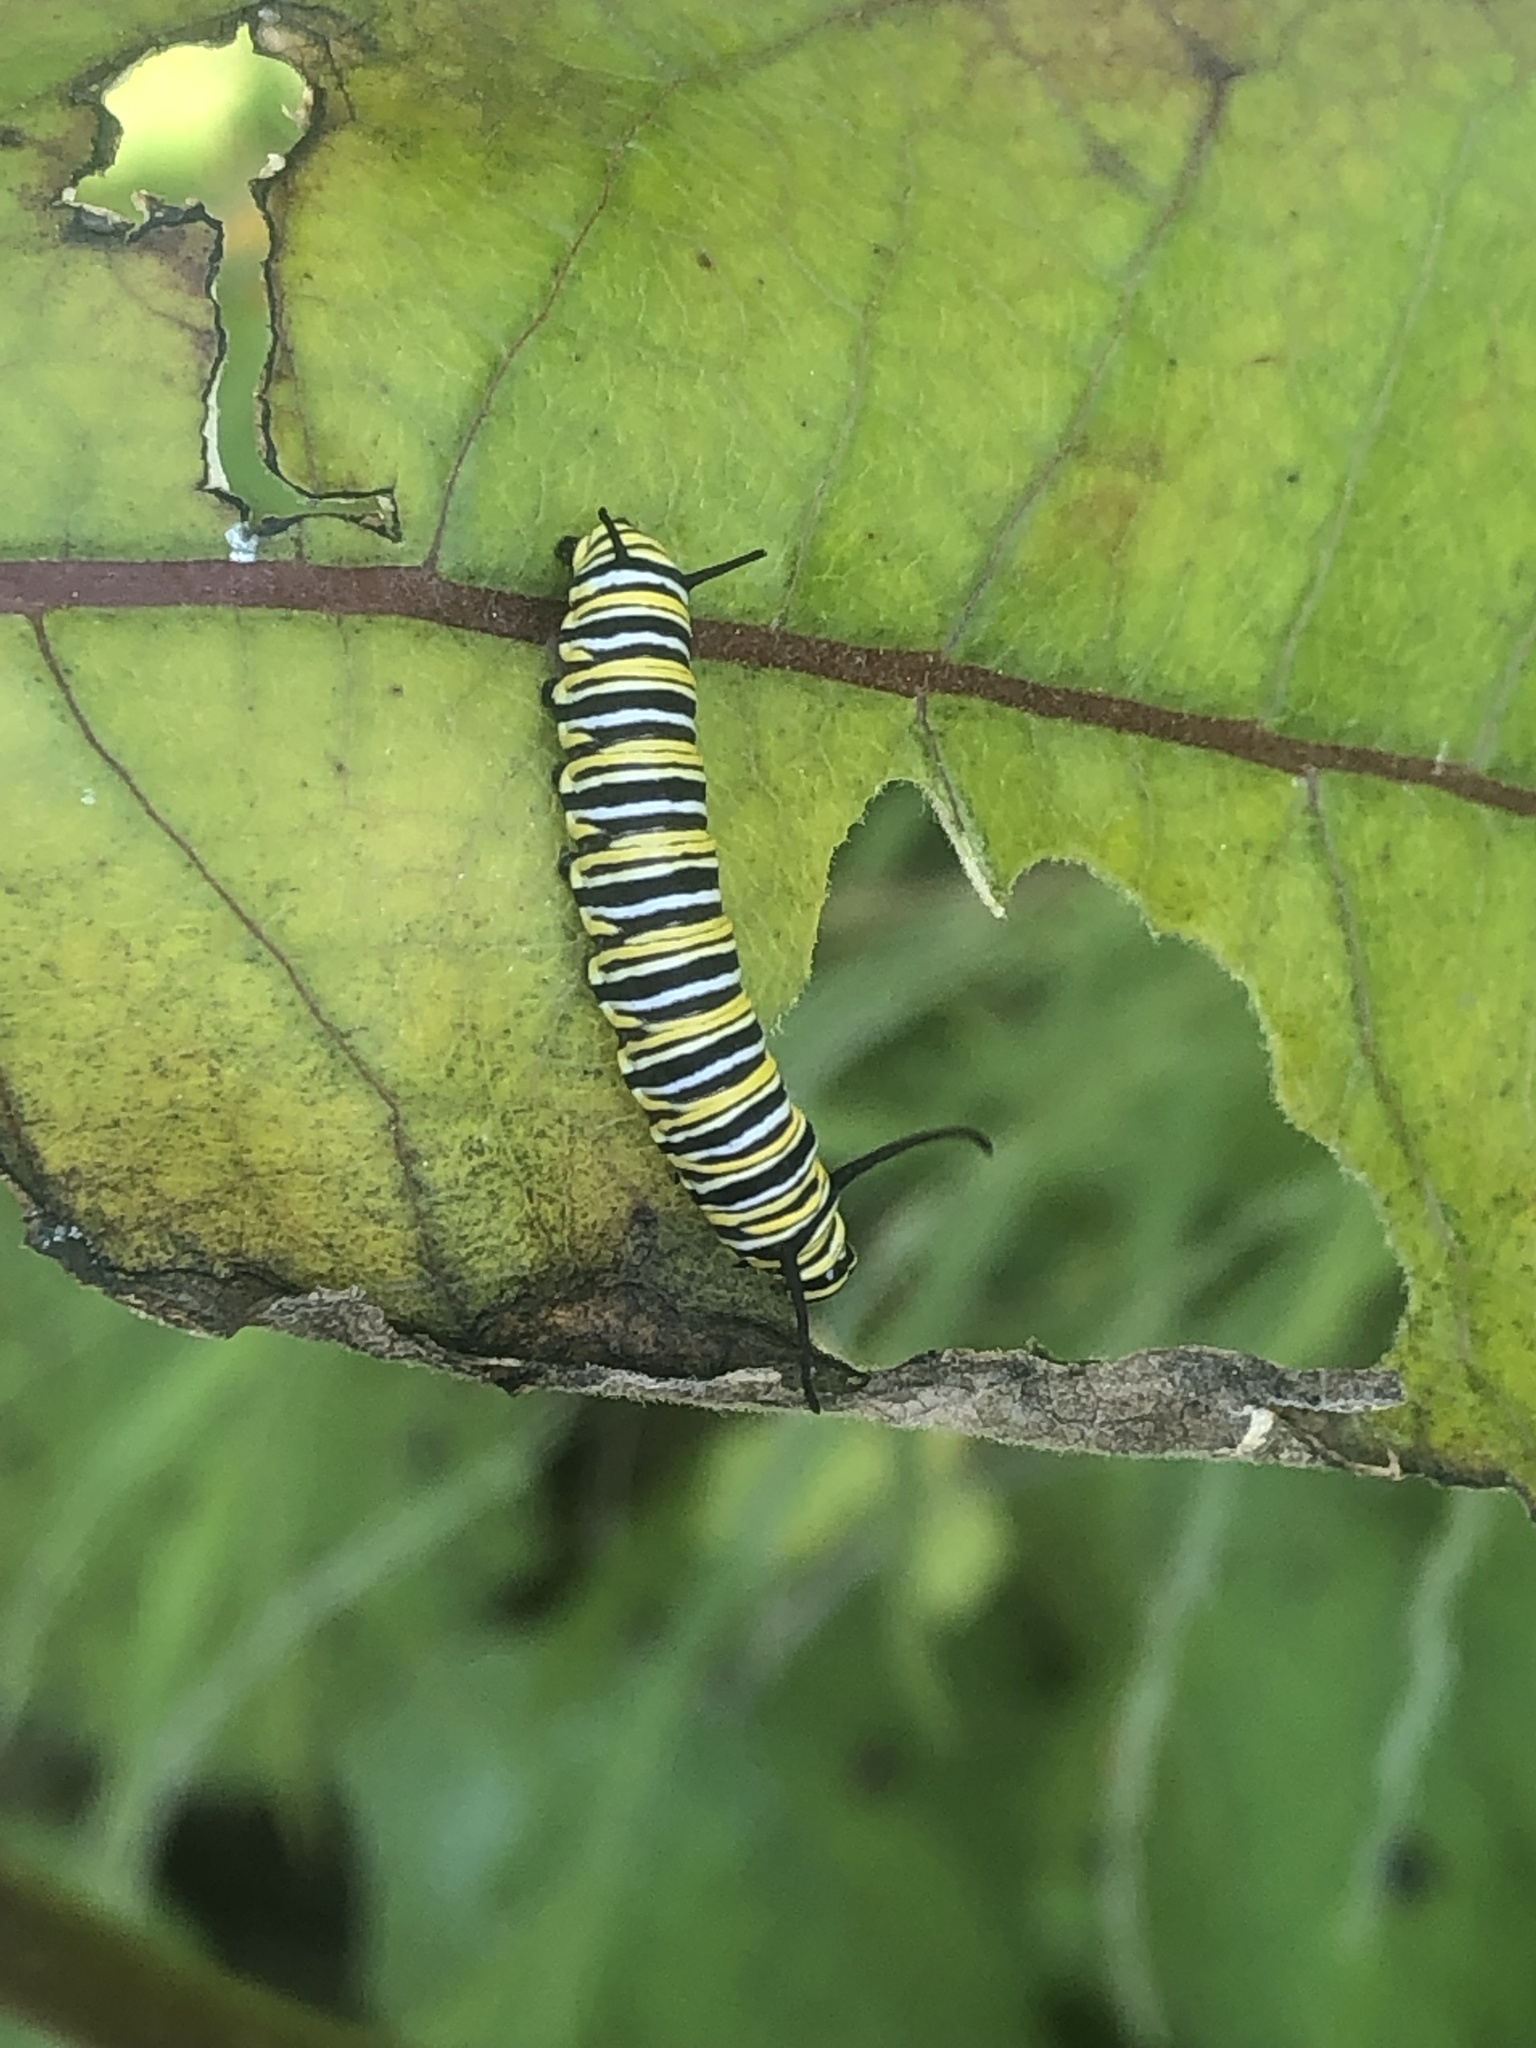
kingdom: Animalia
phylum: Arthropoda
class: Insecta
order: Lepidoptera
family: Nymphalidae
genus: Danaus
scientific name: Danaus plexippus
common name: Monarch
